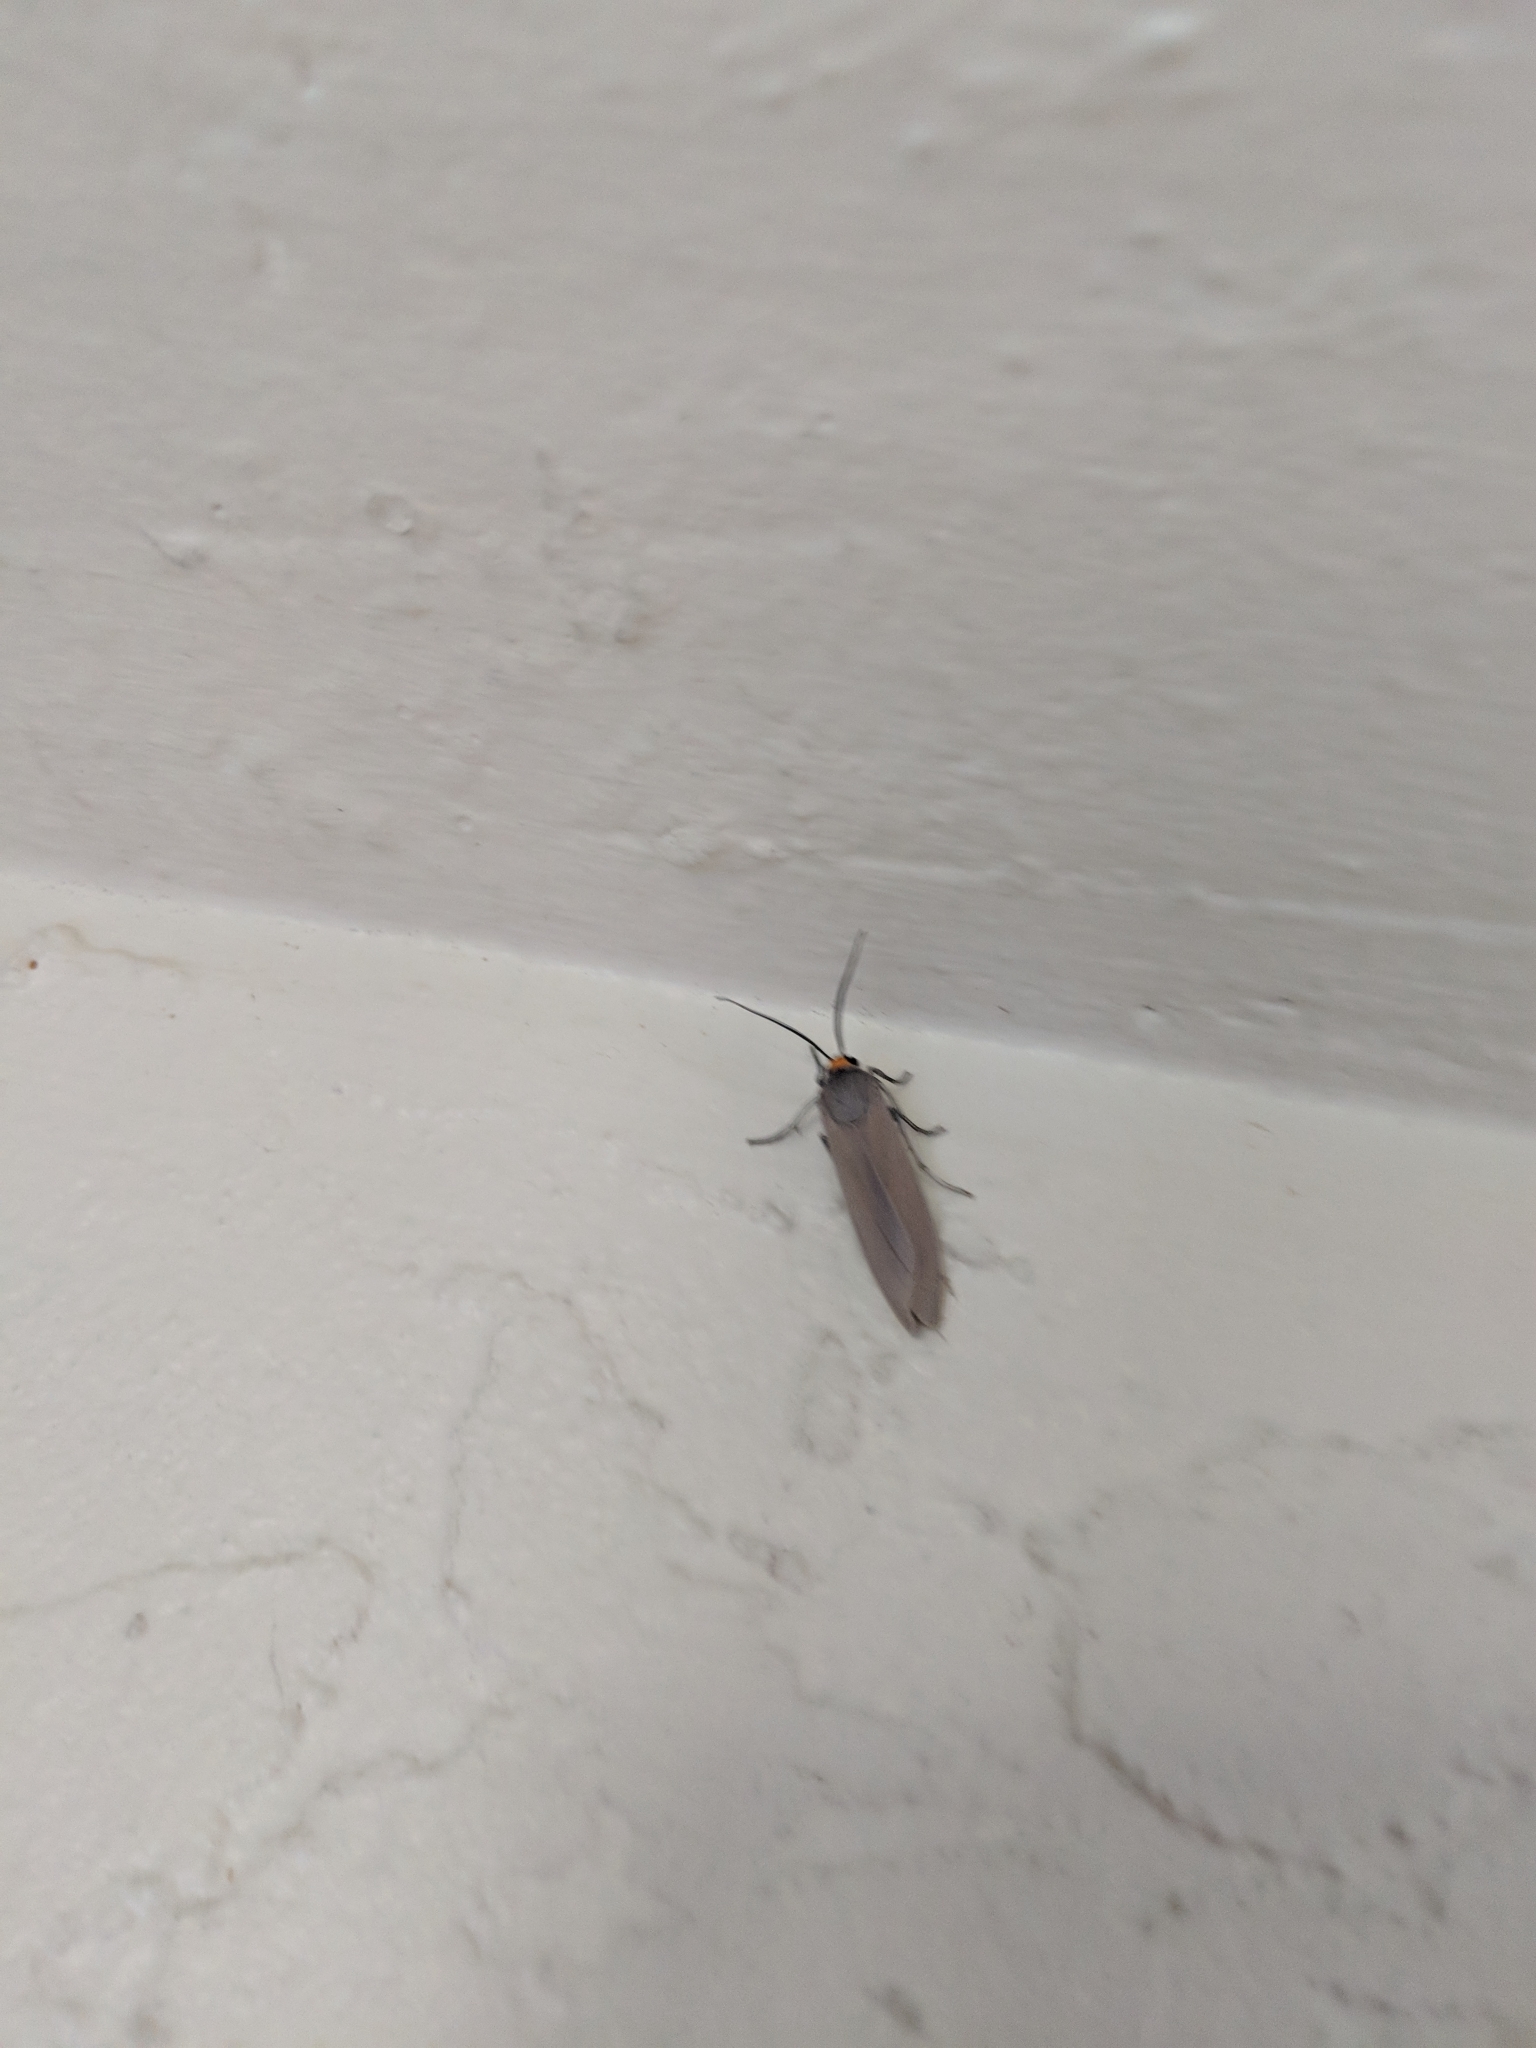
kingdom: Animalia
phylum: Arthropoda
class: Insecta
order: Lepidoptera
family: Erebidae
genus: Lymire
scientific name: Lymire edwardsii
